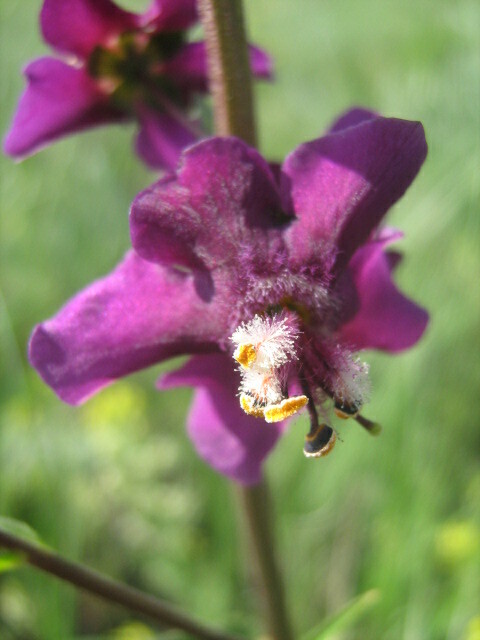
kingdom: Plantae
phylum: Tracheophyta
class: Magnoliopsida
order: Lamiales
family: Scrophulariaceae
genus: Verbascum
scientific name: Verbascum phoeniceum
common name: Purple mullein
